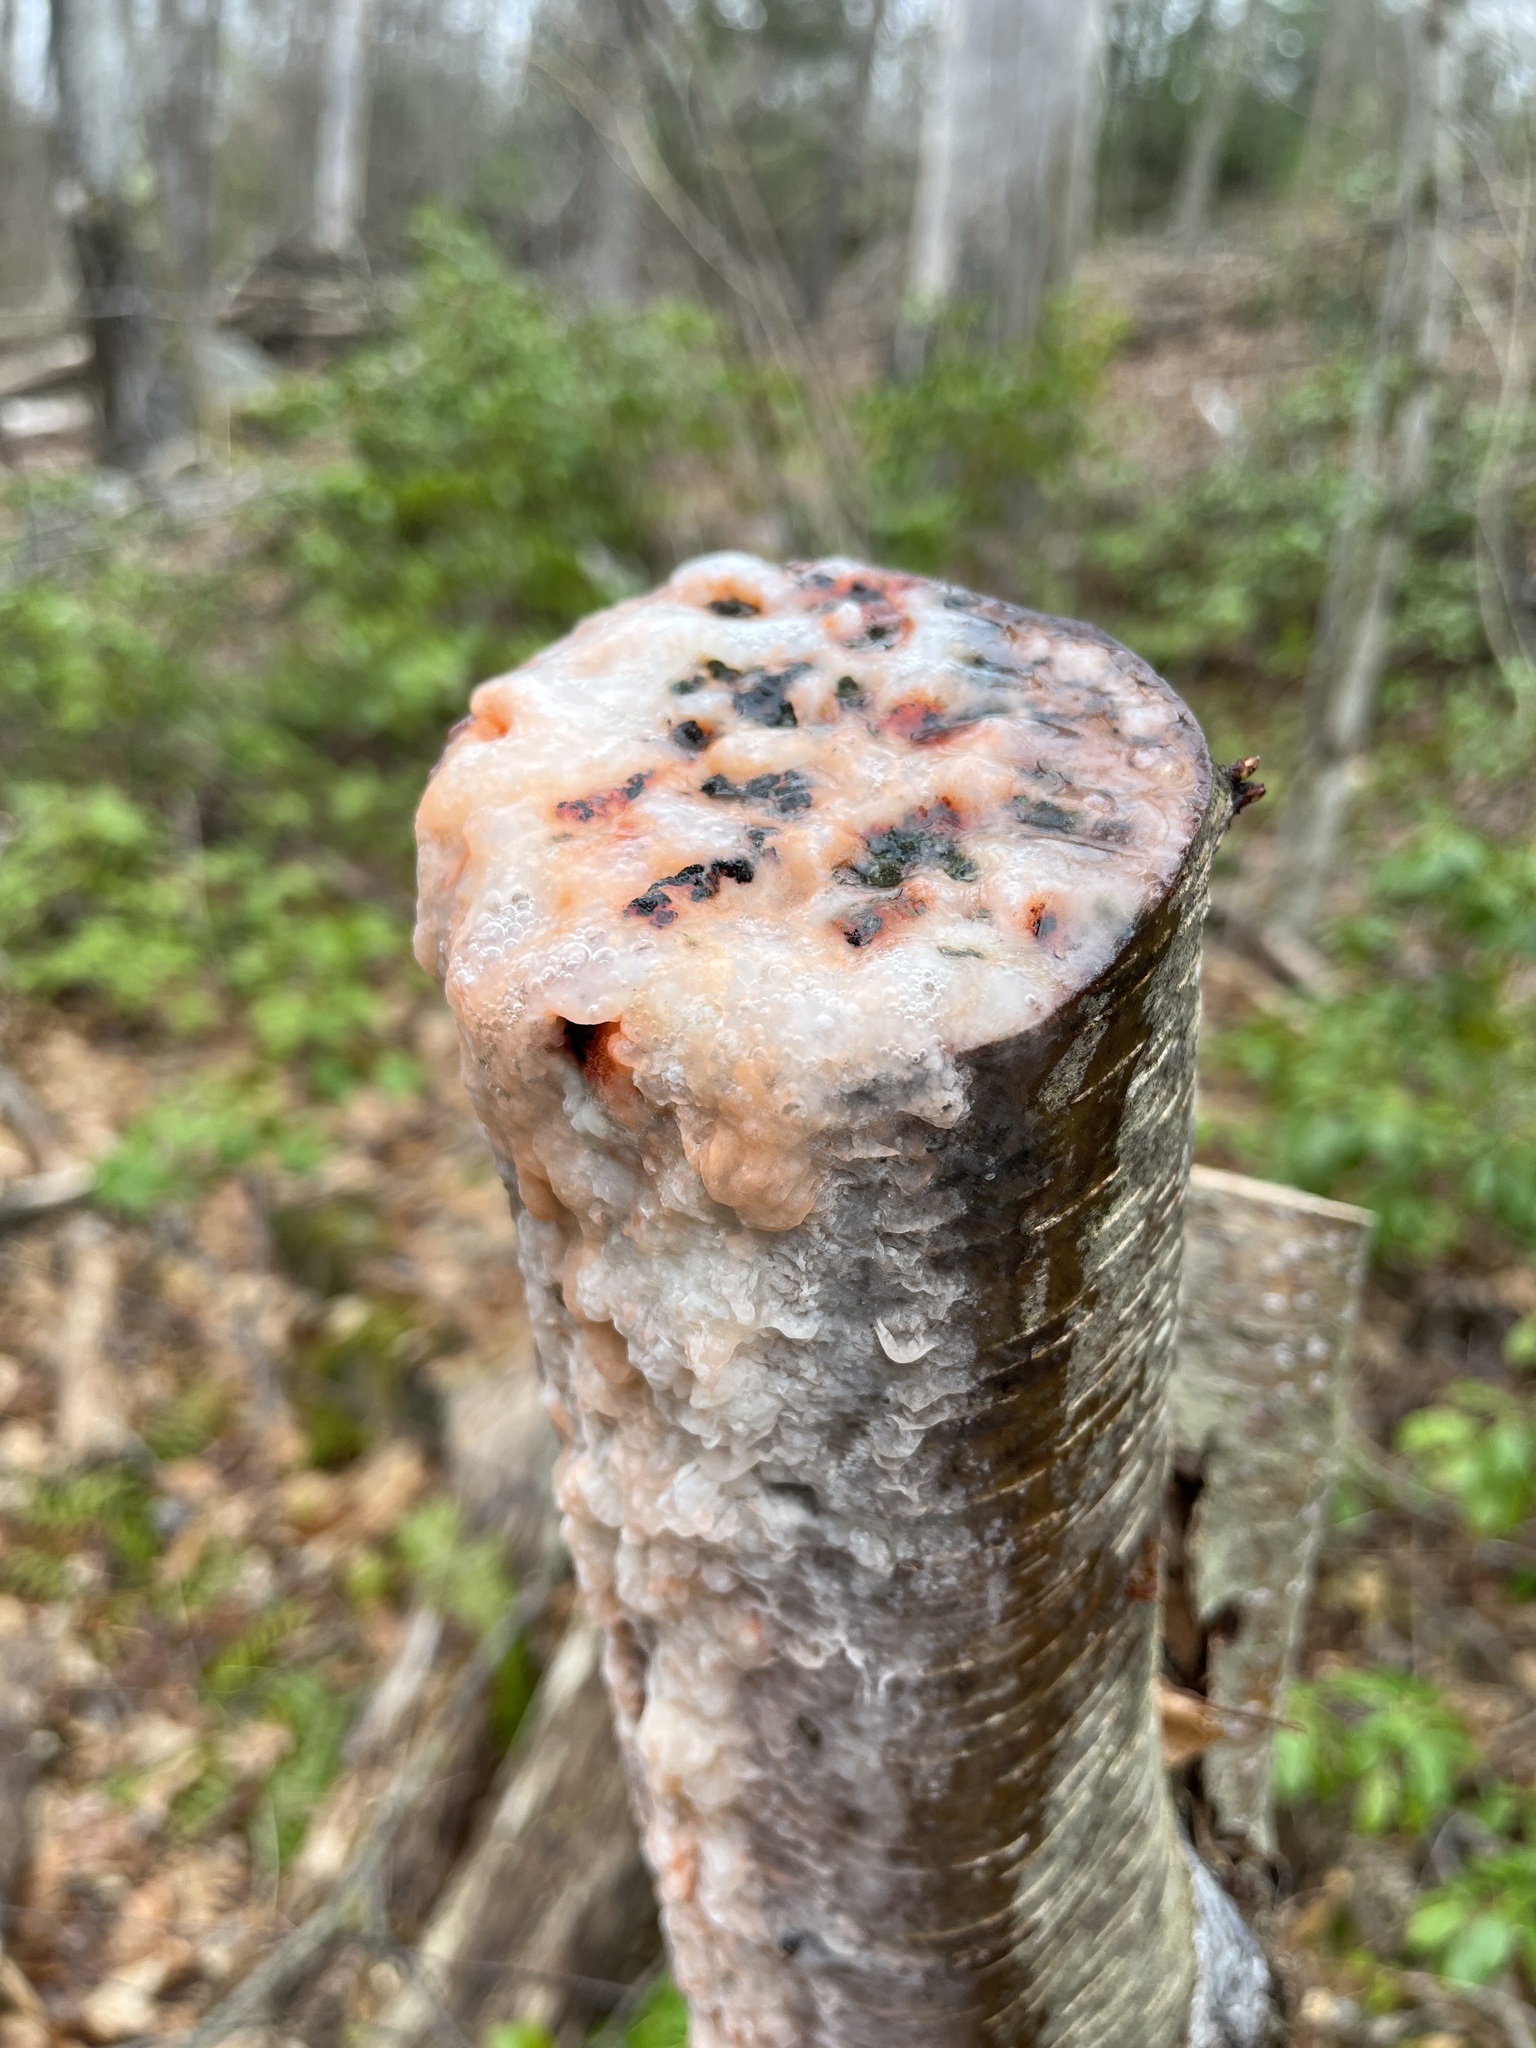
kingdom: Fungi
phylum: Basidiomycota
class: Tremellomycetes
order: Cystofilobasidiales
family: Cystofilobasidiaceae
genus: Cystofilobasidium
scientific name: Cystofilobasidium macerans
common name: Sap yeast
